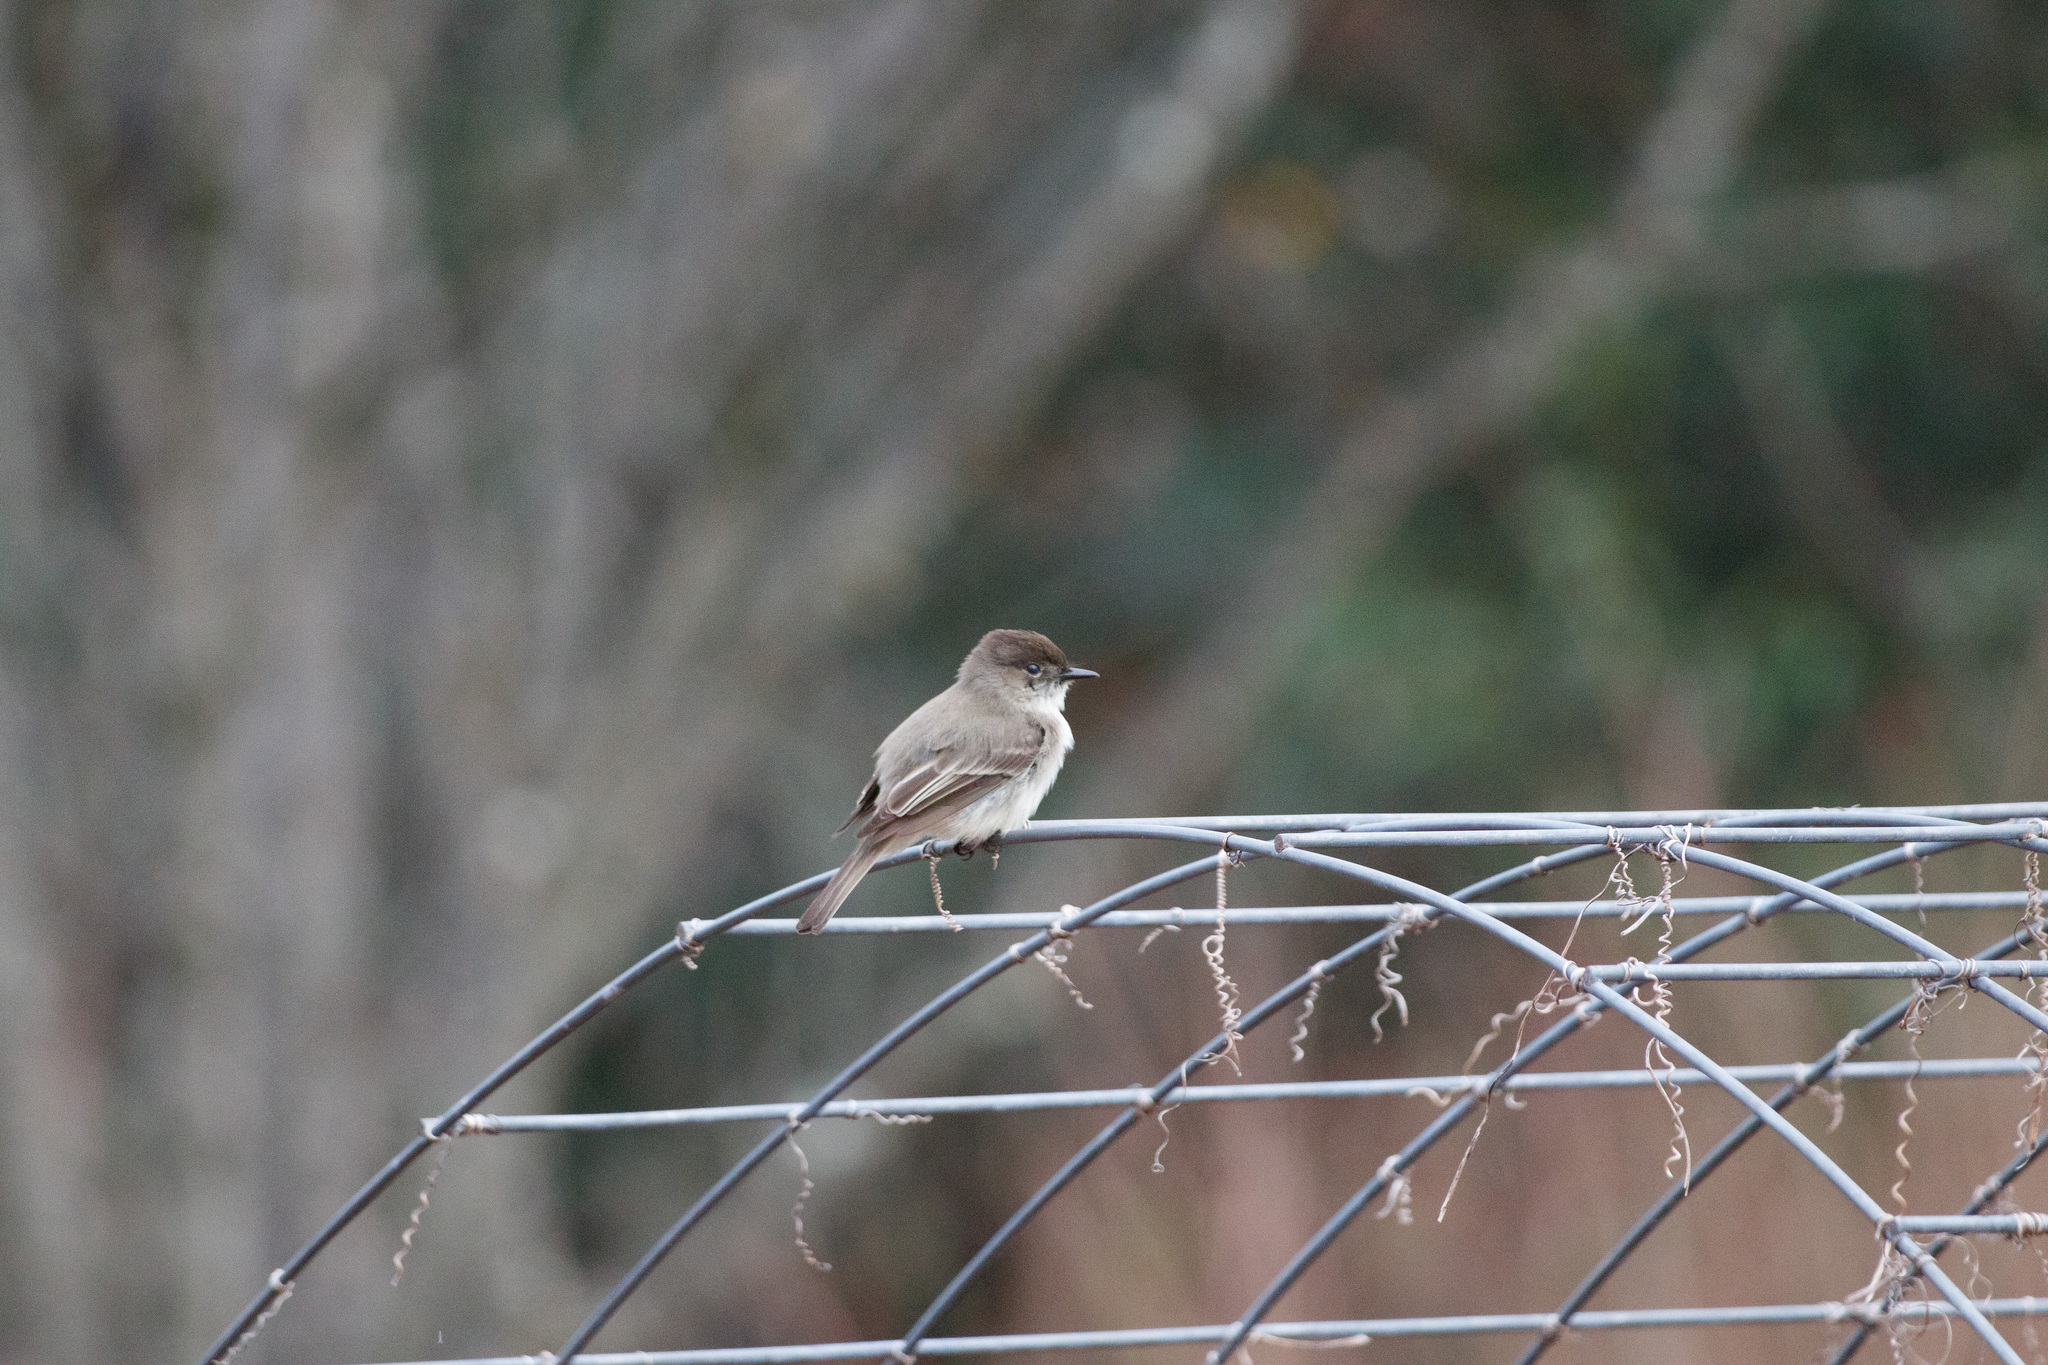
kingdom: Animalia
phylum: Chordata
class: Aves
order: Passeriformes
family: Tyrannidae
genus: Sayornis
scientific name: Sayornis phoebe
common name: Eastern phoebe
